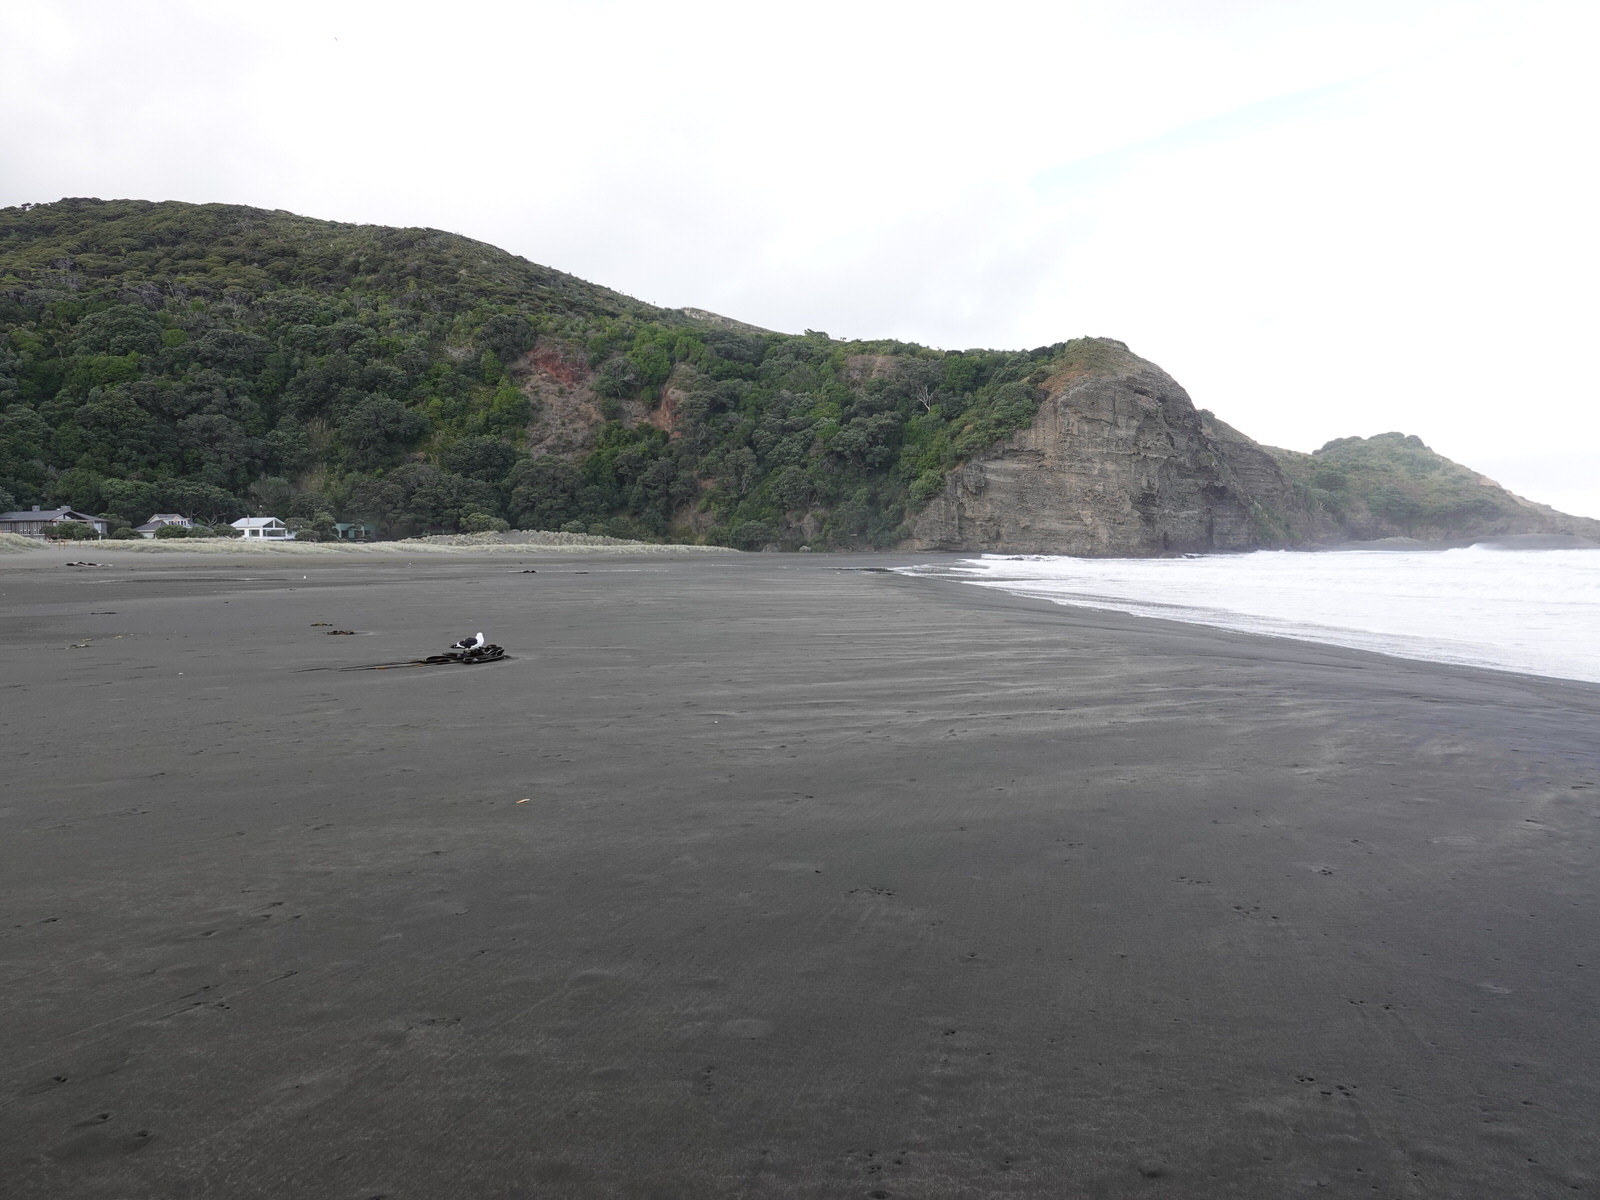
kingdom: Animalia
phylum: Chordata
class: Aves
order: Charadriiformes
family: Laridae
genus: Larus
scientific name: Larus dominicanus
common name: Kelp gull
